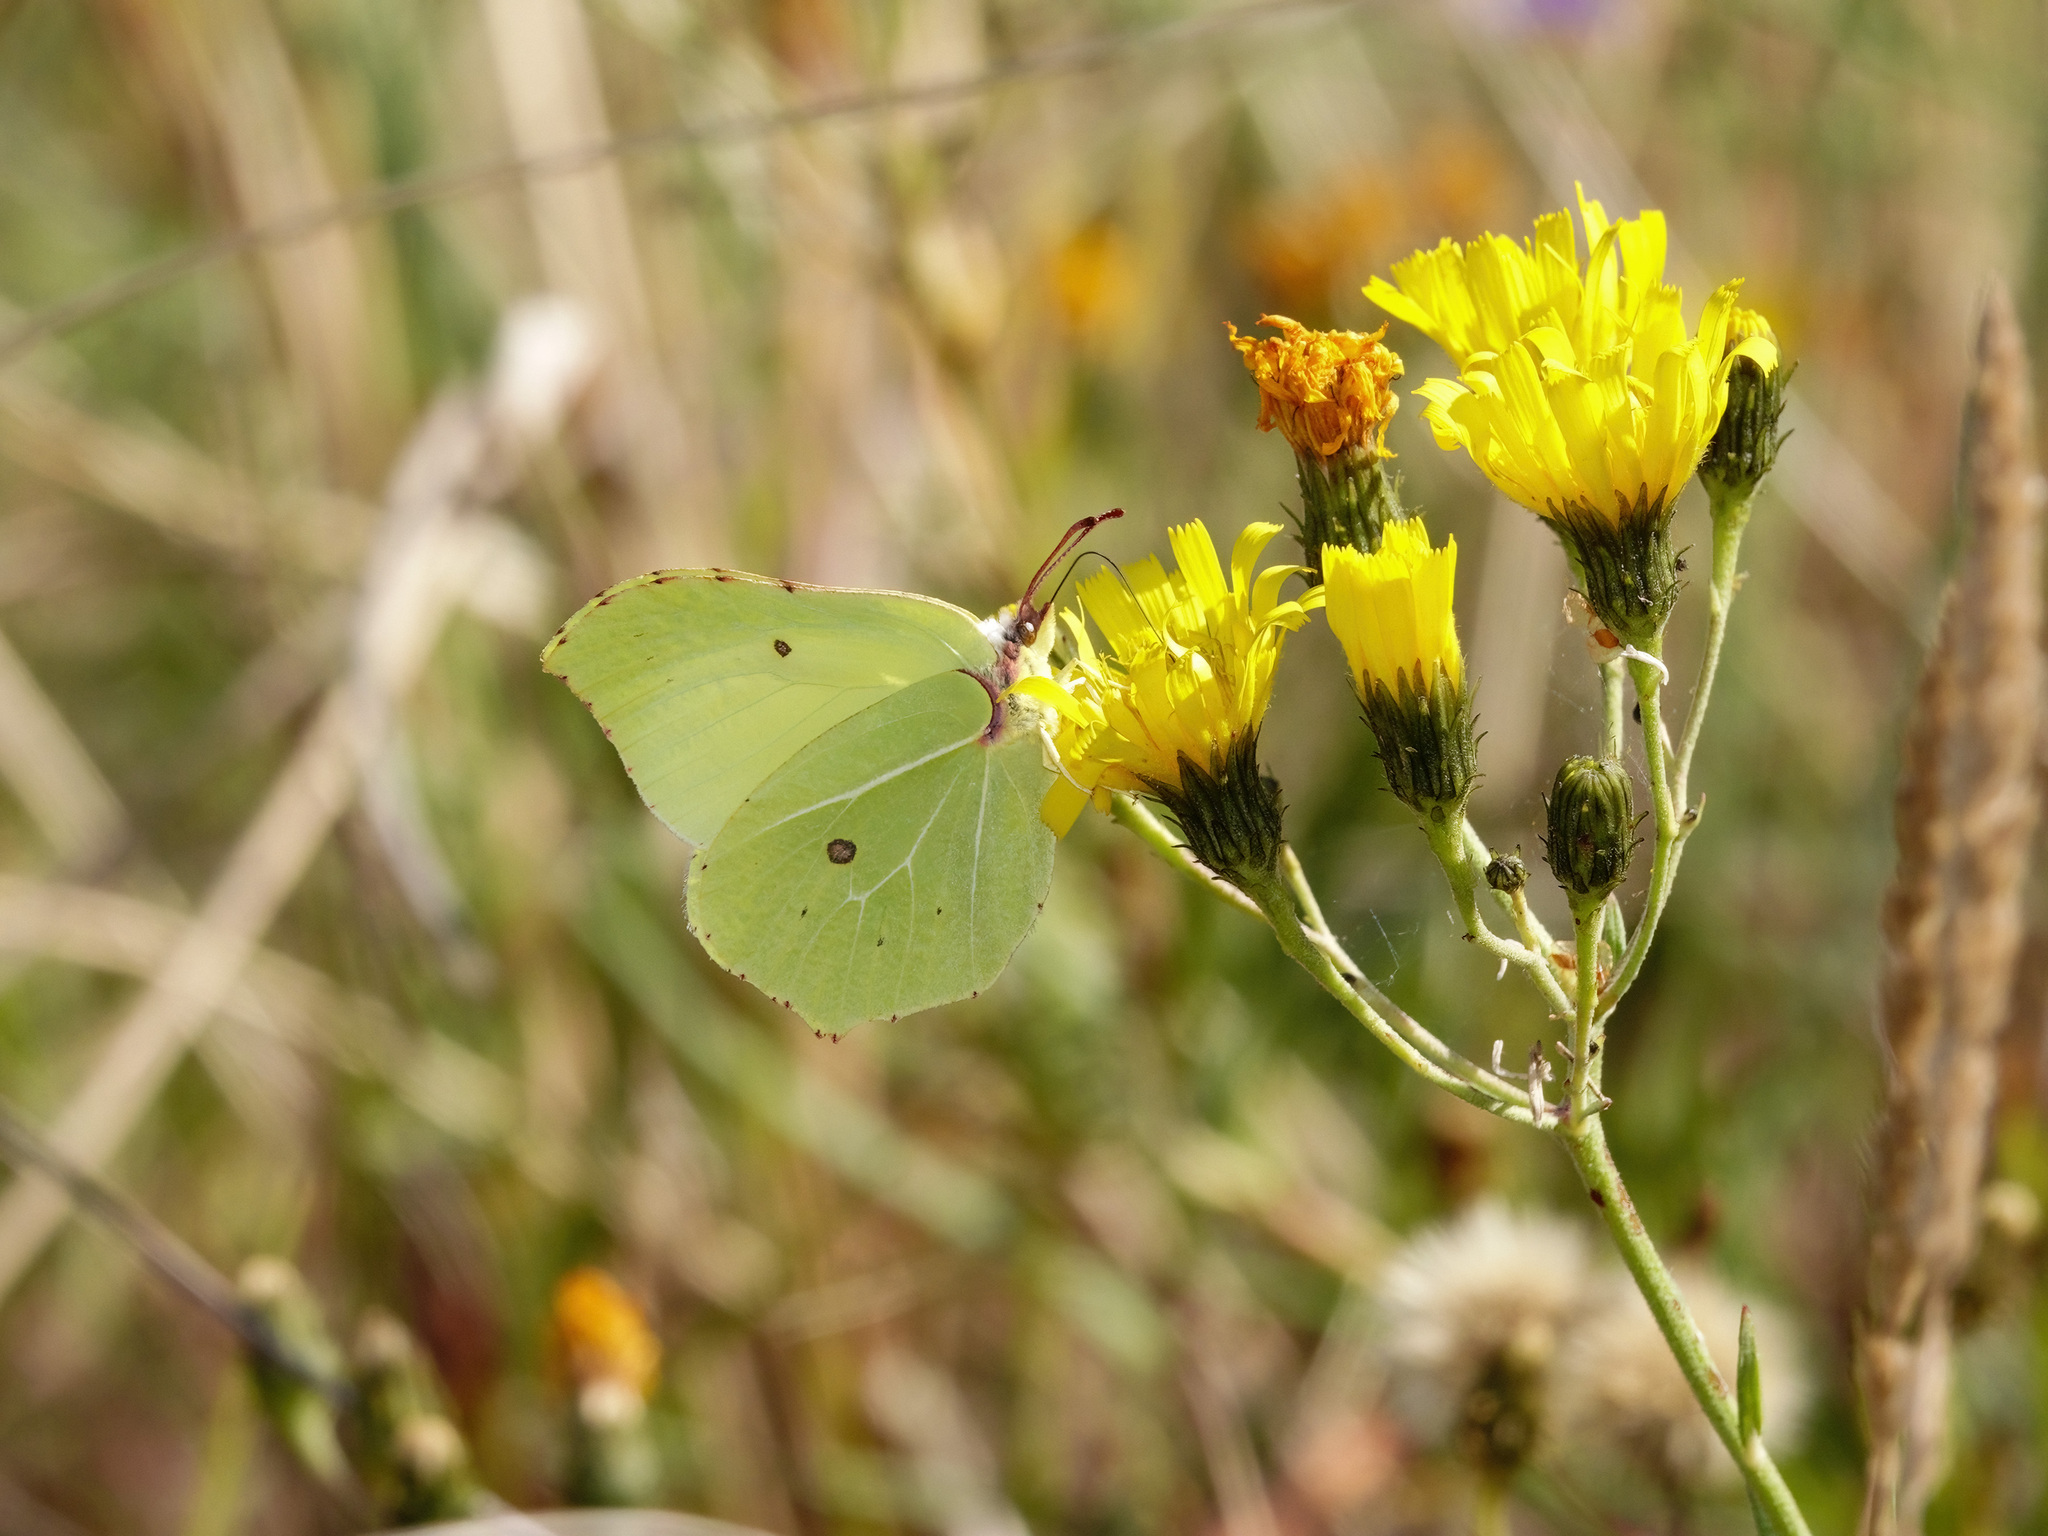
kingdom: Animalia
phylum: Arthropoda
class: Insecta
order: Lepidoptera
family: Pieridae
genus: Gonepteryx
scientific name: Gonepteryx rhamni
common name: Brimstone
